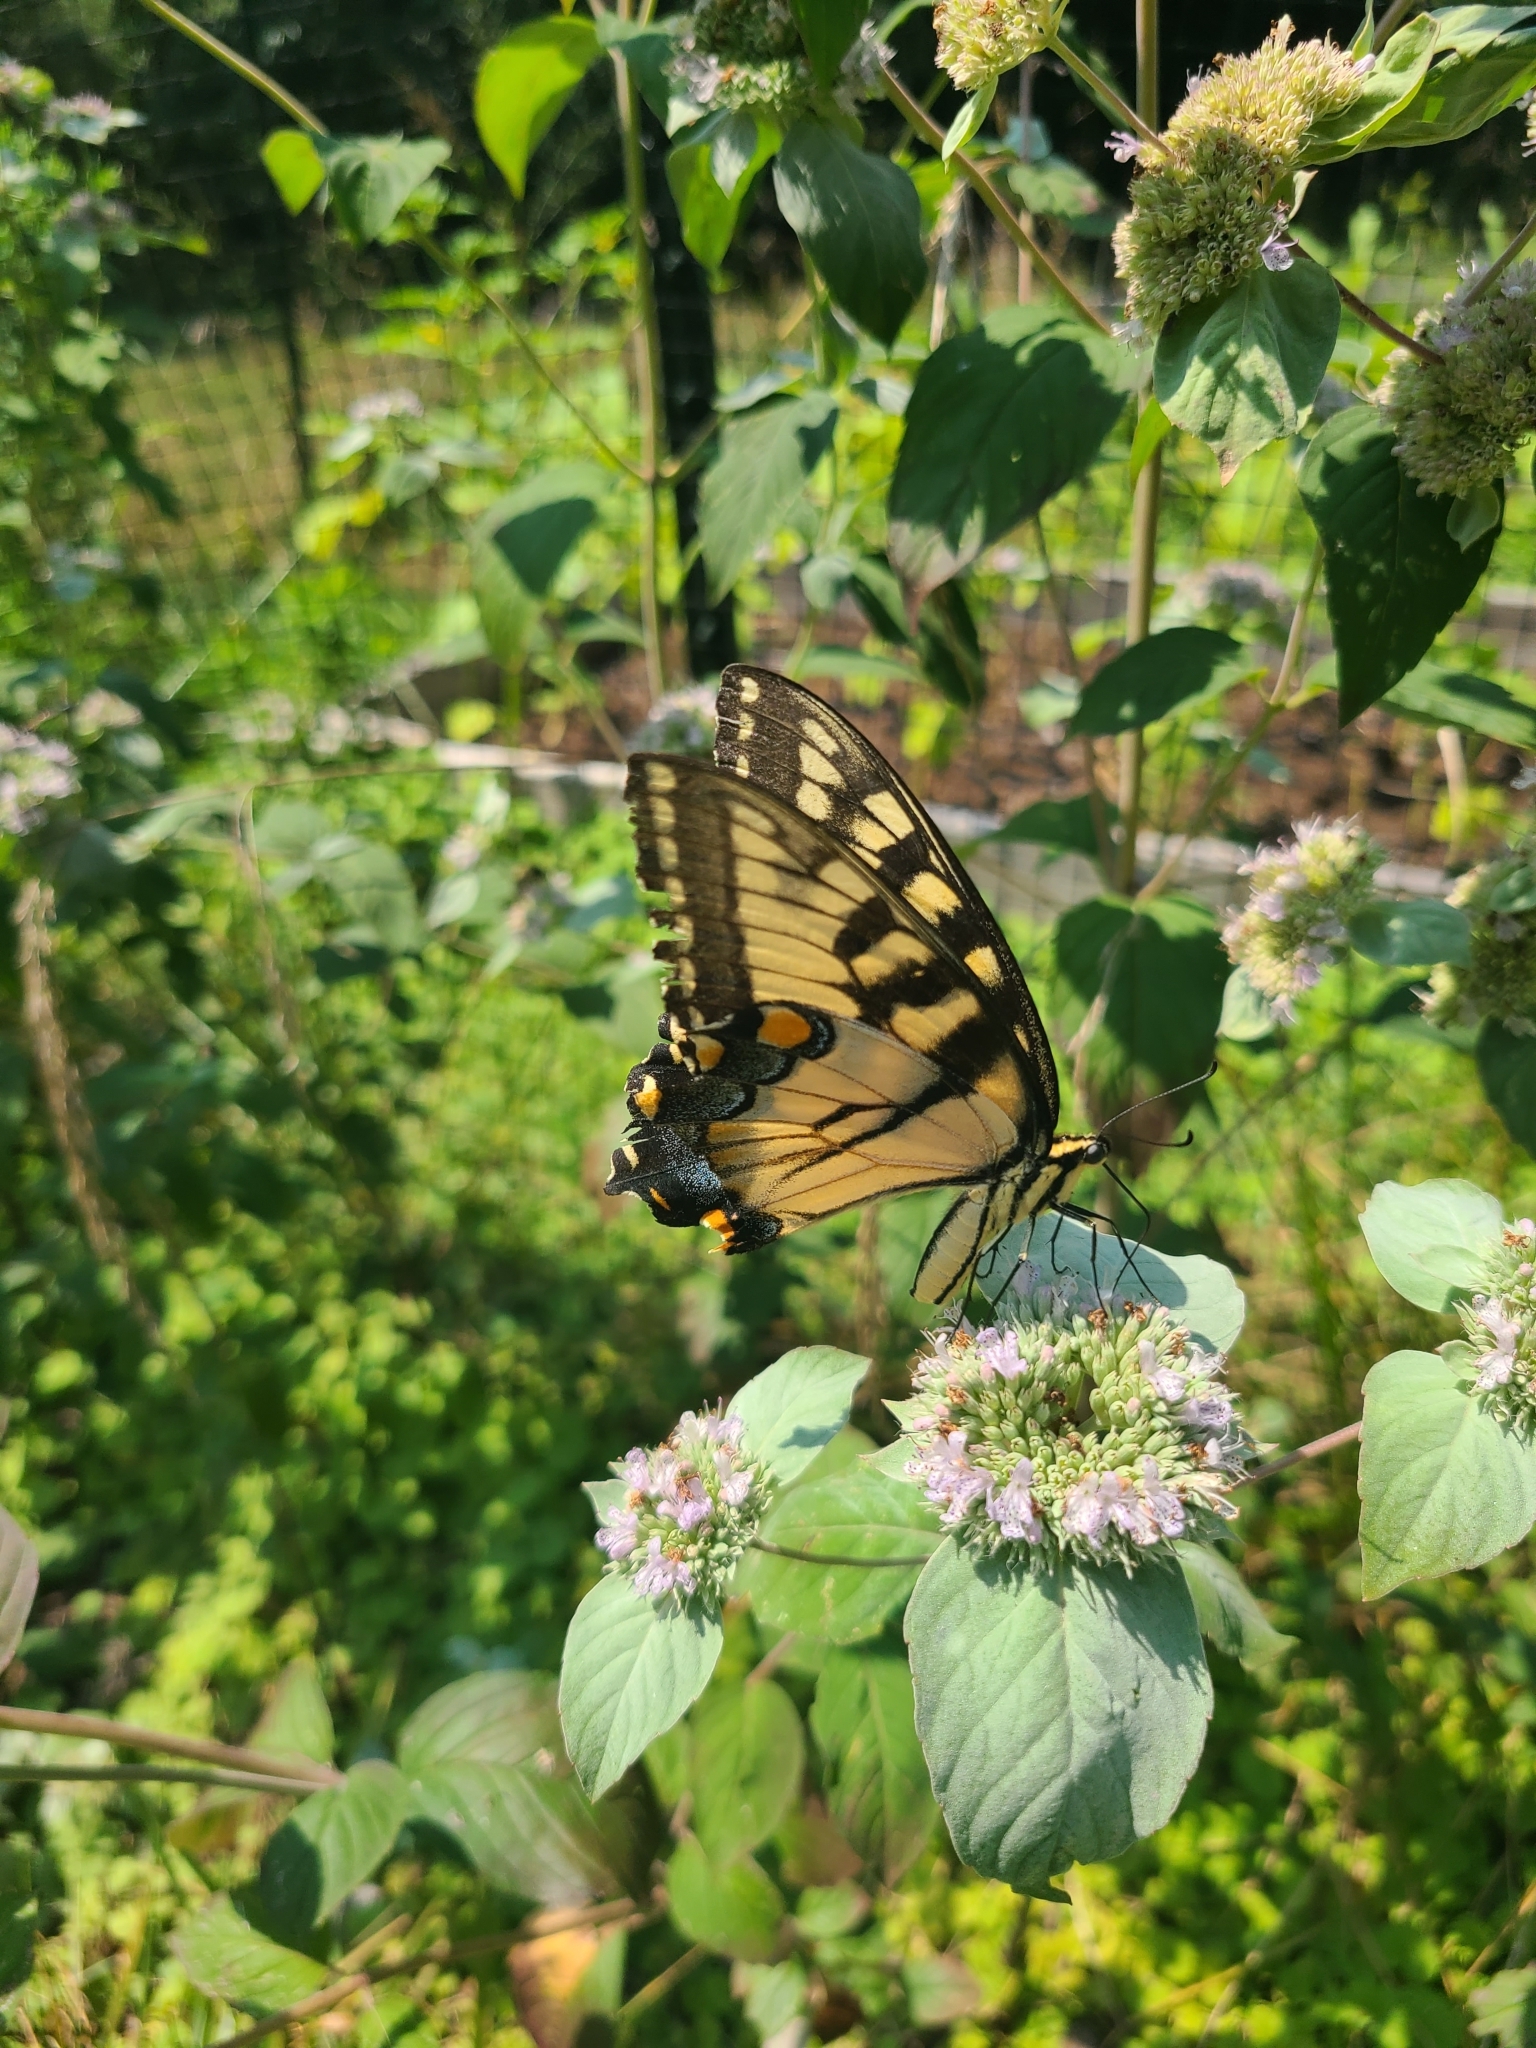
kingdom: Animalia
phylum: Arthropoda
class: Insecta
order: Lepidoptera
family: Papilionidae
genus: Papilio
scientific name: Papilio glaucus
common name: Tiger swallowtail
